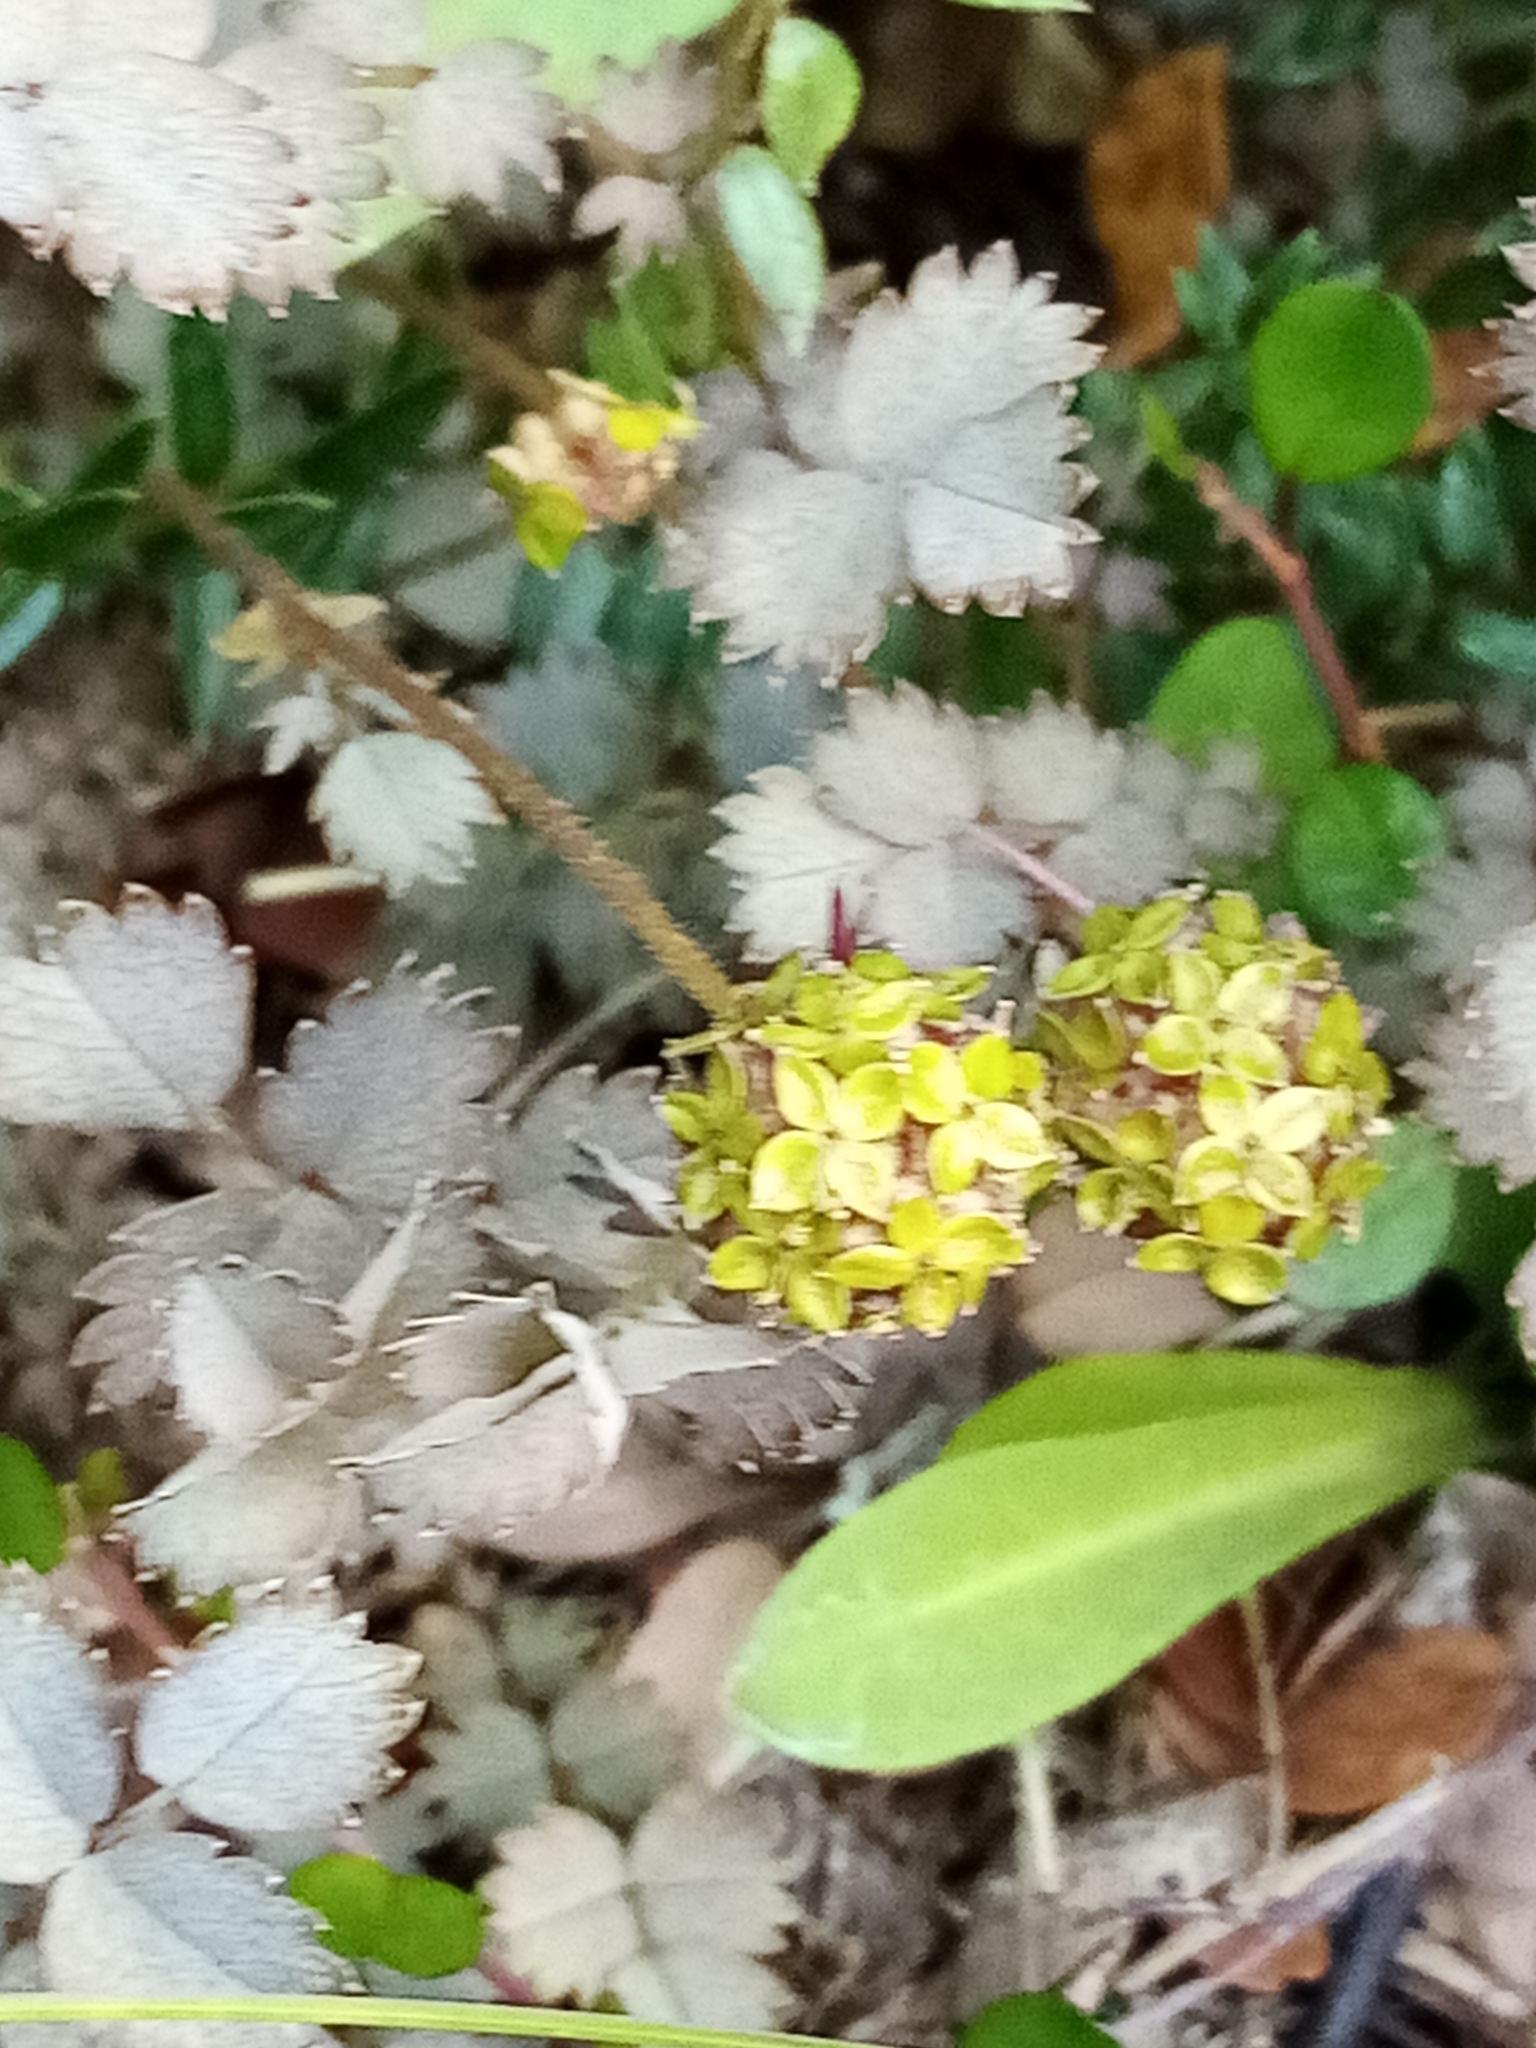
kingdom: Plantae
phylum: Tracheophyta
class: Magnoliopsida
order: Rosales
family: Rosaceae
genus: Acaena
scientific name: Acaena inermis
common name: Spineless acaena
